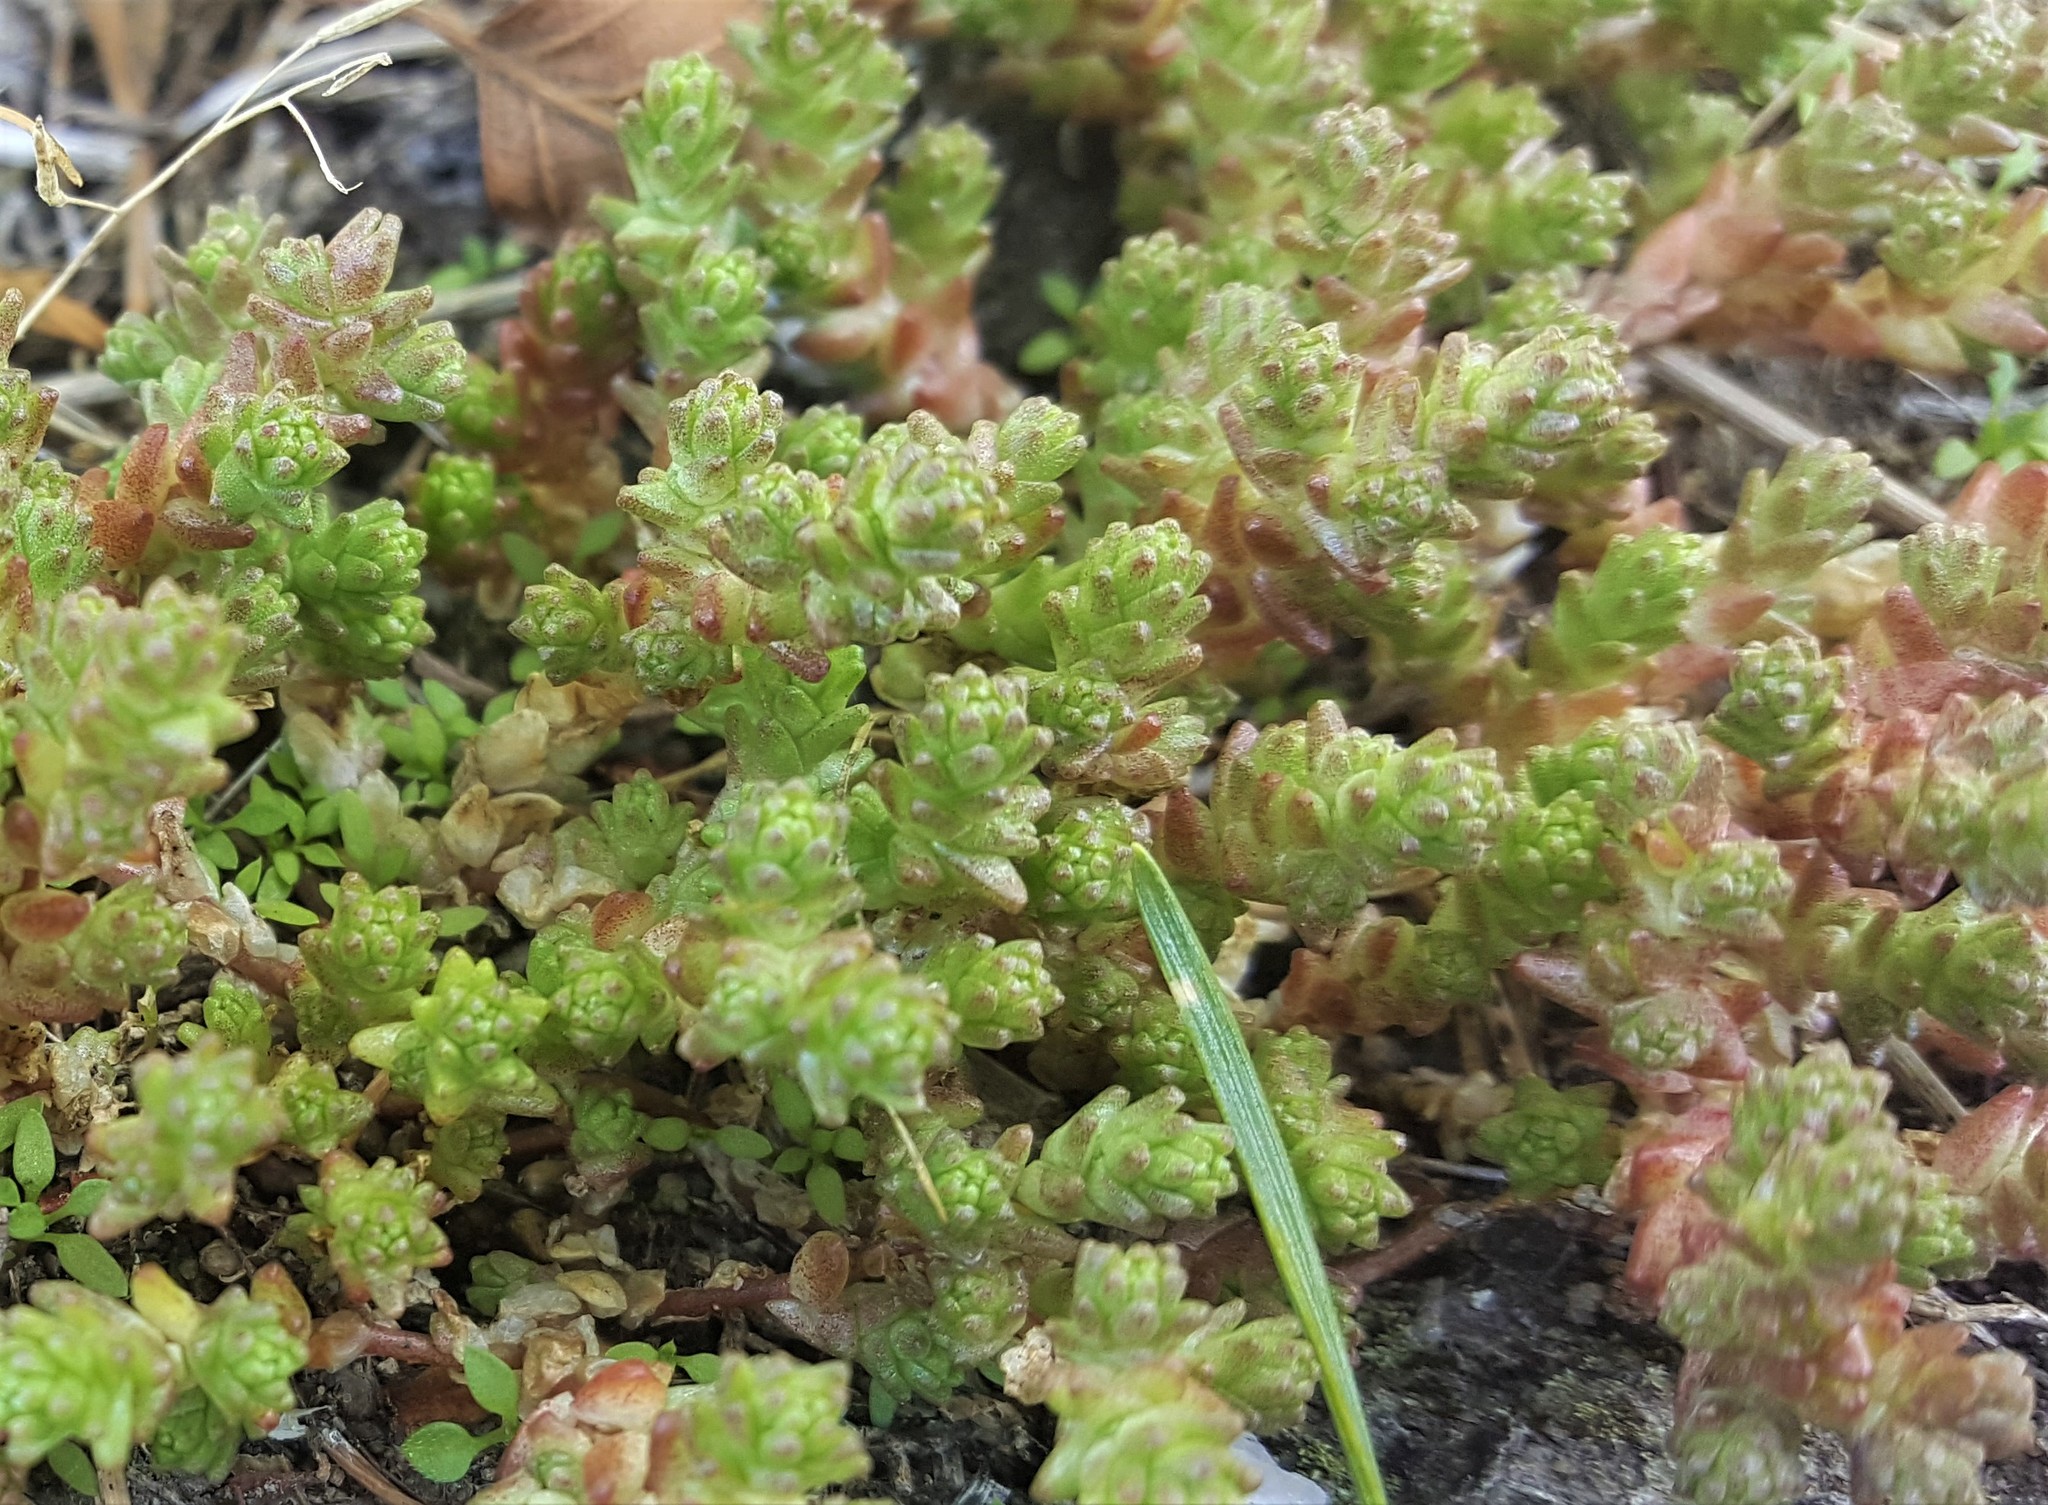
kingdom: Plantae
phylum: Tracheophyta
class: Magnoliopsida
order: Saxifragales
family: Crassulaceae
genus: Sedum
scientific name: Sedum acre
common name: Biting stonecrop
